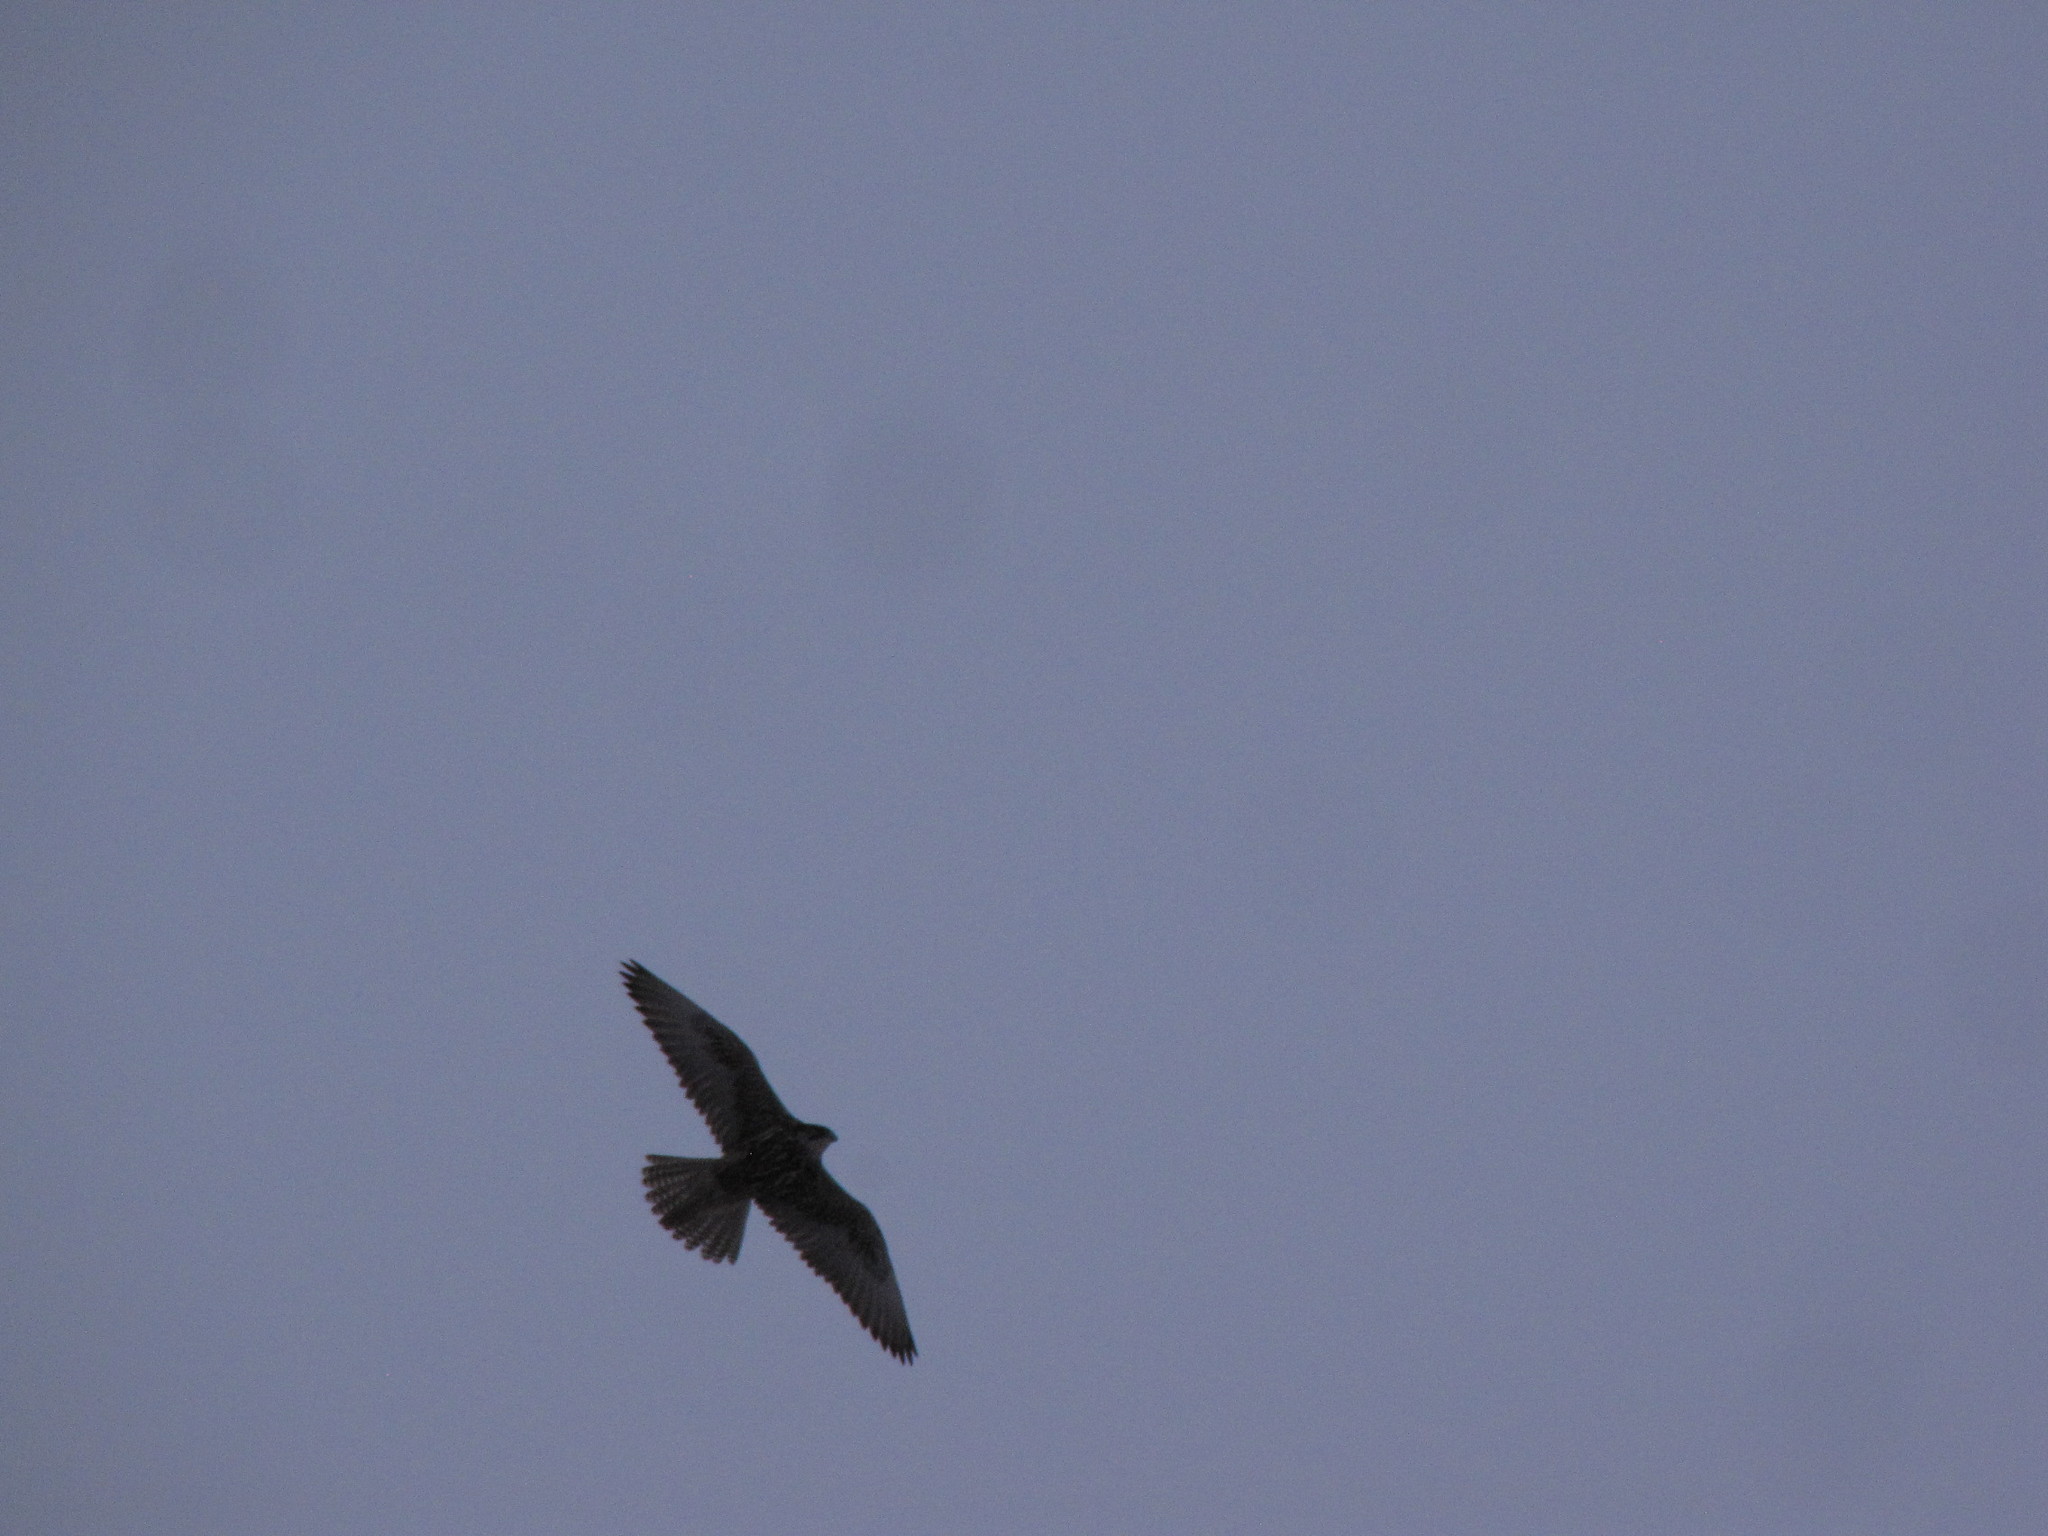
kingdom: Animalia
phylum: Chordata
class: Aves
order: Falconiformes
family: Falconidae
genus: Falco
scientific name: Falco rusticolus
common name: Gyrfalcon
